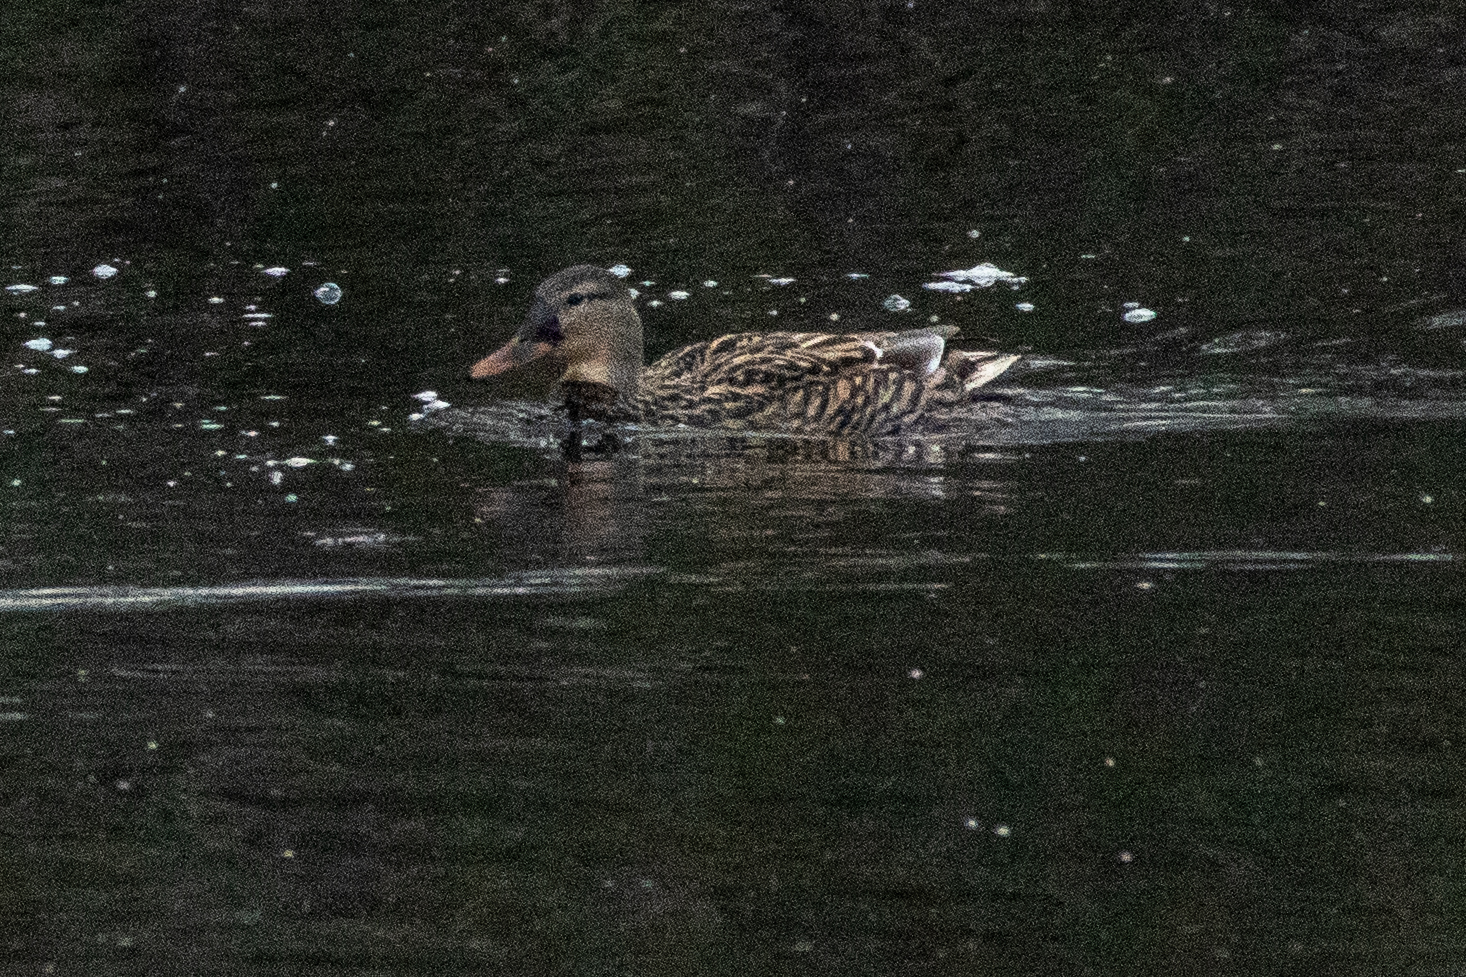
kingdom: Animalia
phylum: Chordata
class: Aves
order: Anseriformes
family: Anatidae
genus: Anas
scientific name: Anas platyrhynchos
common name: Mallard
